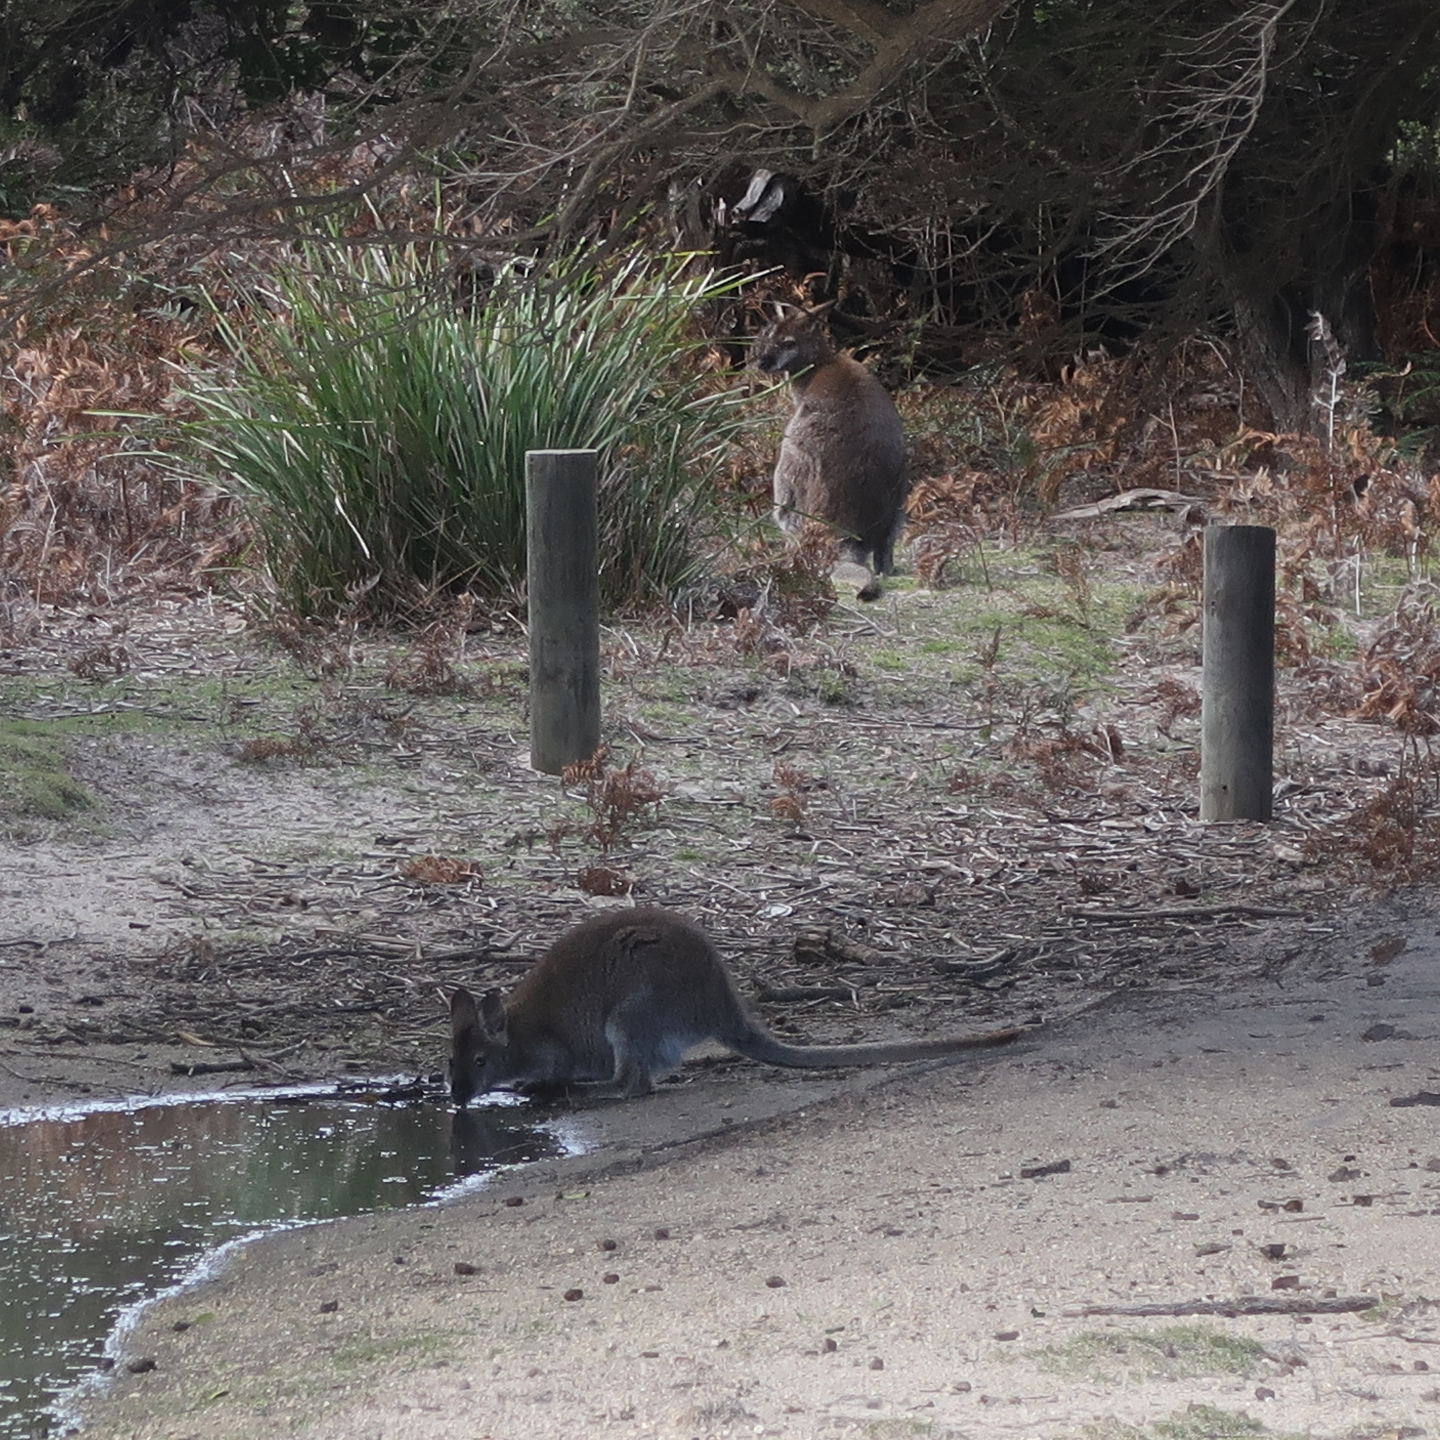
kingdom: Animalia
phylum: Chordata
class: Mammalia
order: Diprotodontia
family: Macropodidae
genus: Notamacropus
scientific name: Notamacropus rufogriseus
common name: Red-necked wallaby
